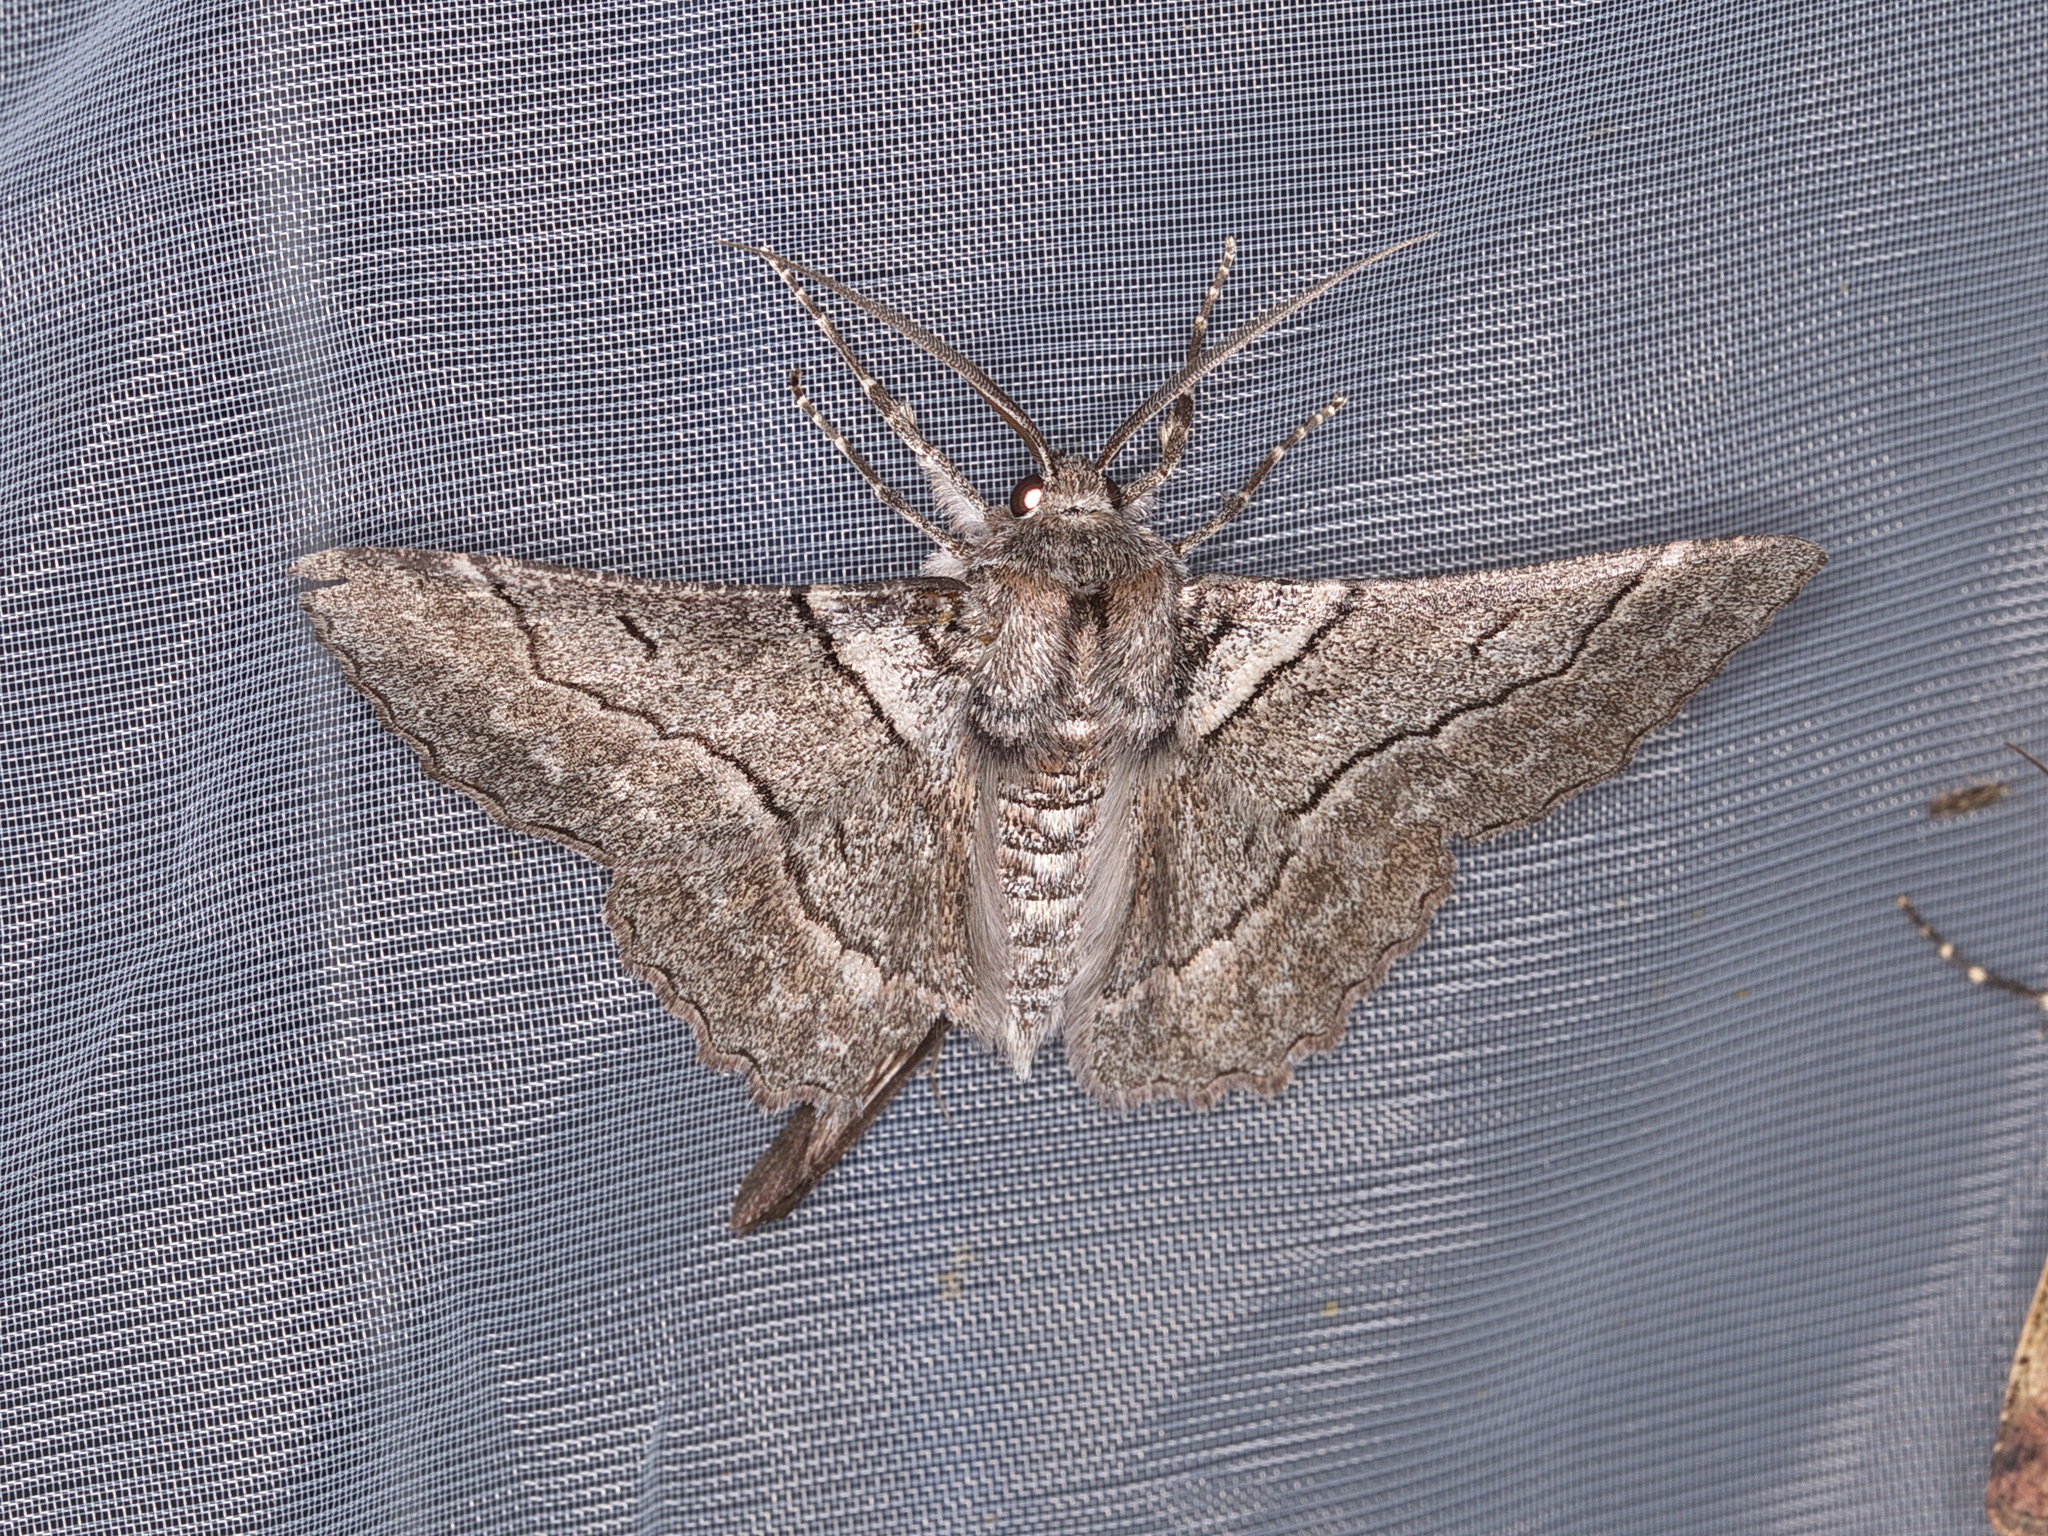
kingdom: Animalia
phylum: Arthropoda
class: Insecta
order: Lepidoptera
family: Geometridae
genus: Hypobapta
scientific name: Hypobapta tachyhalotaria
